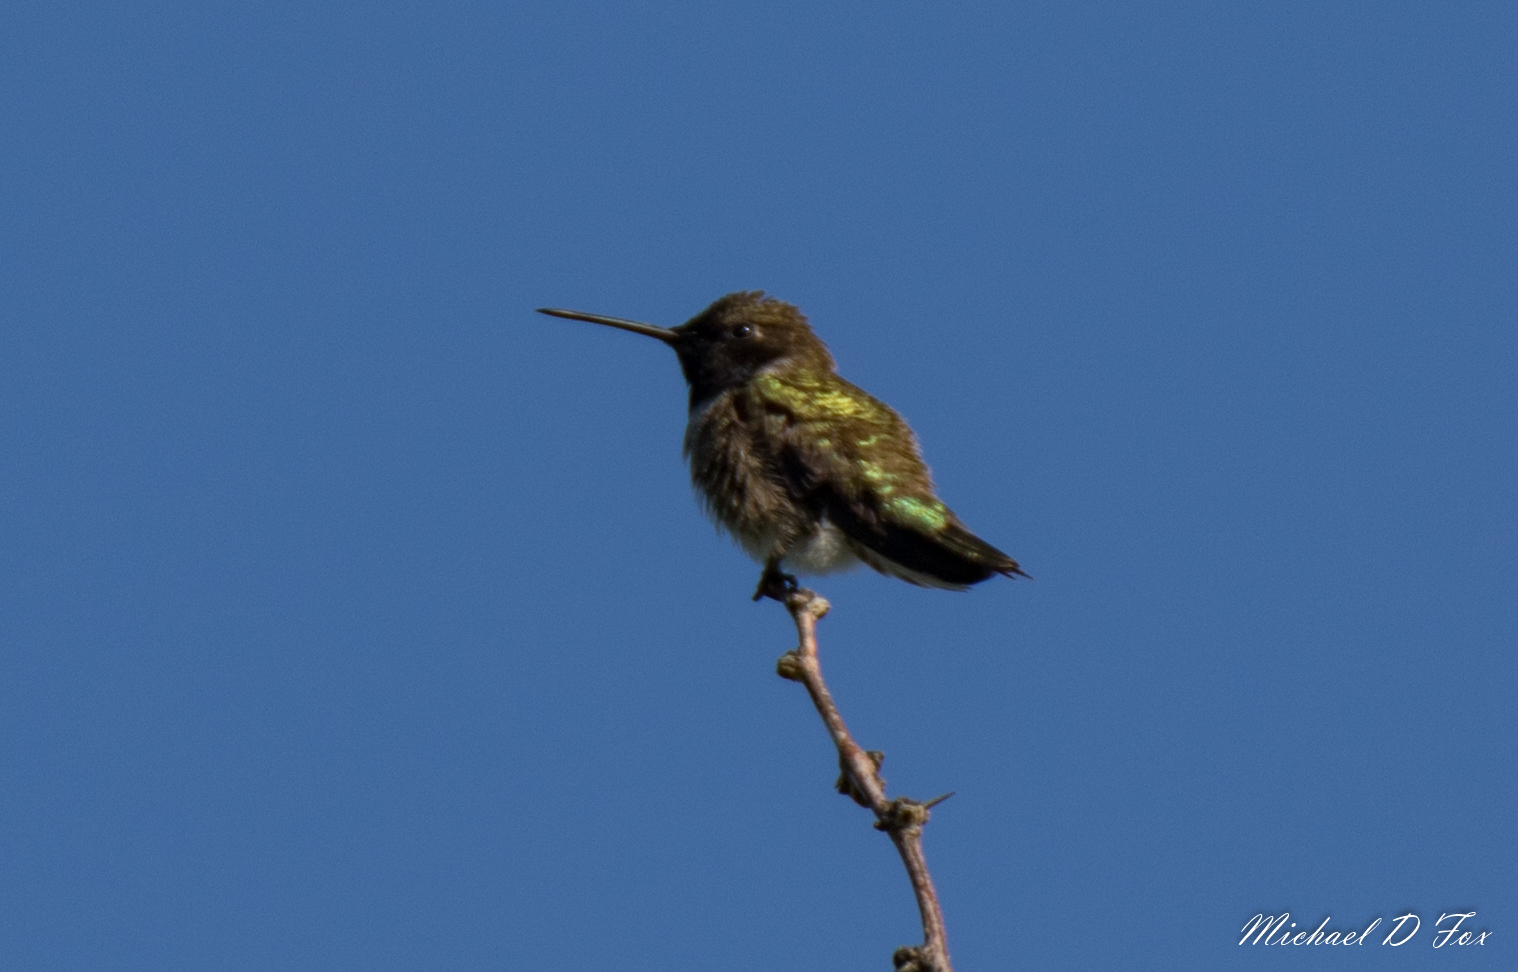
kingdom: Animalia
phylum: Chordata
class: Aves
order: Apodiformes
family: Trochilidae
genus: Archilochus
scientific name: Archilochus alexandri
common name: Black-chinned hummingbird
